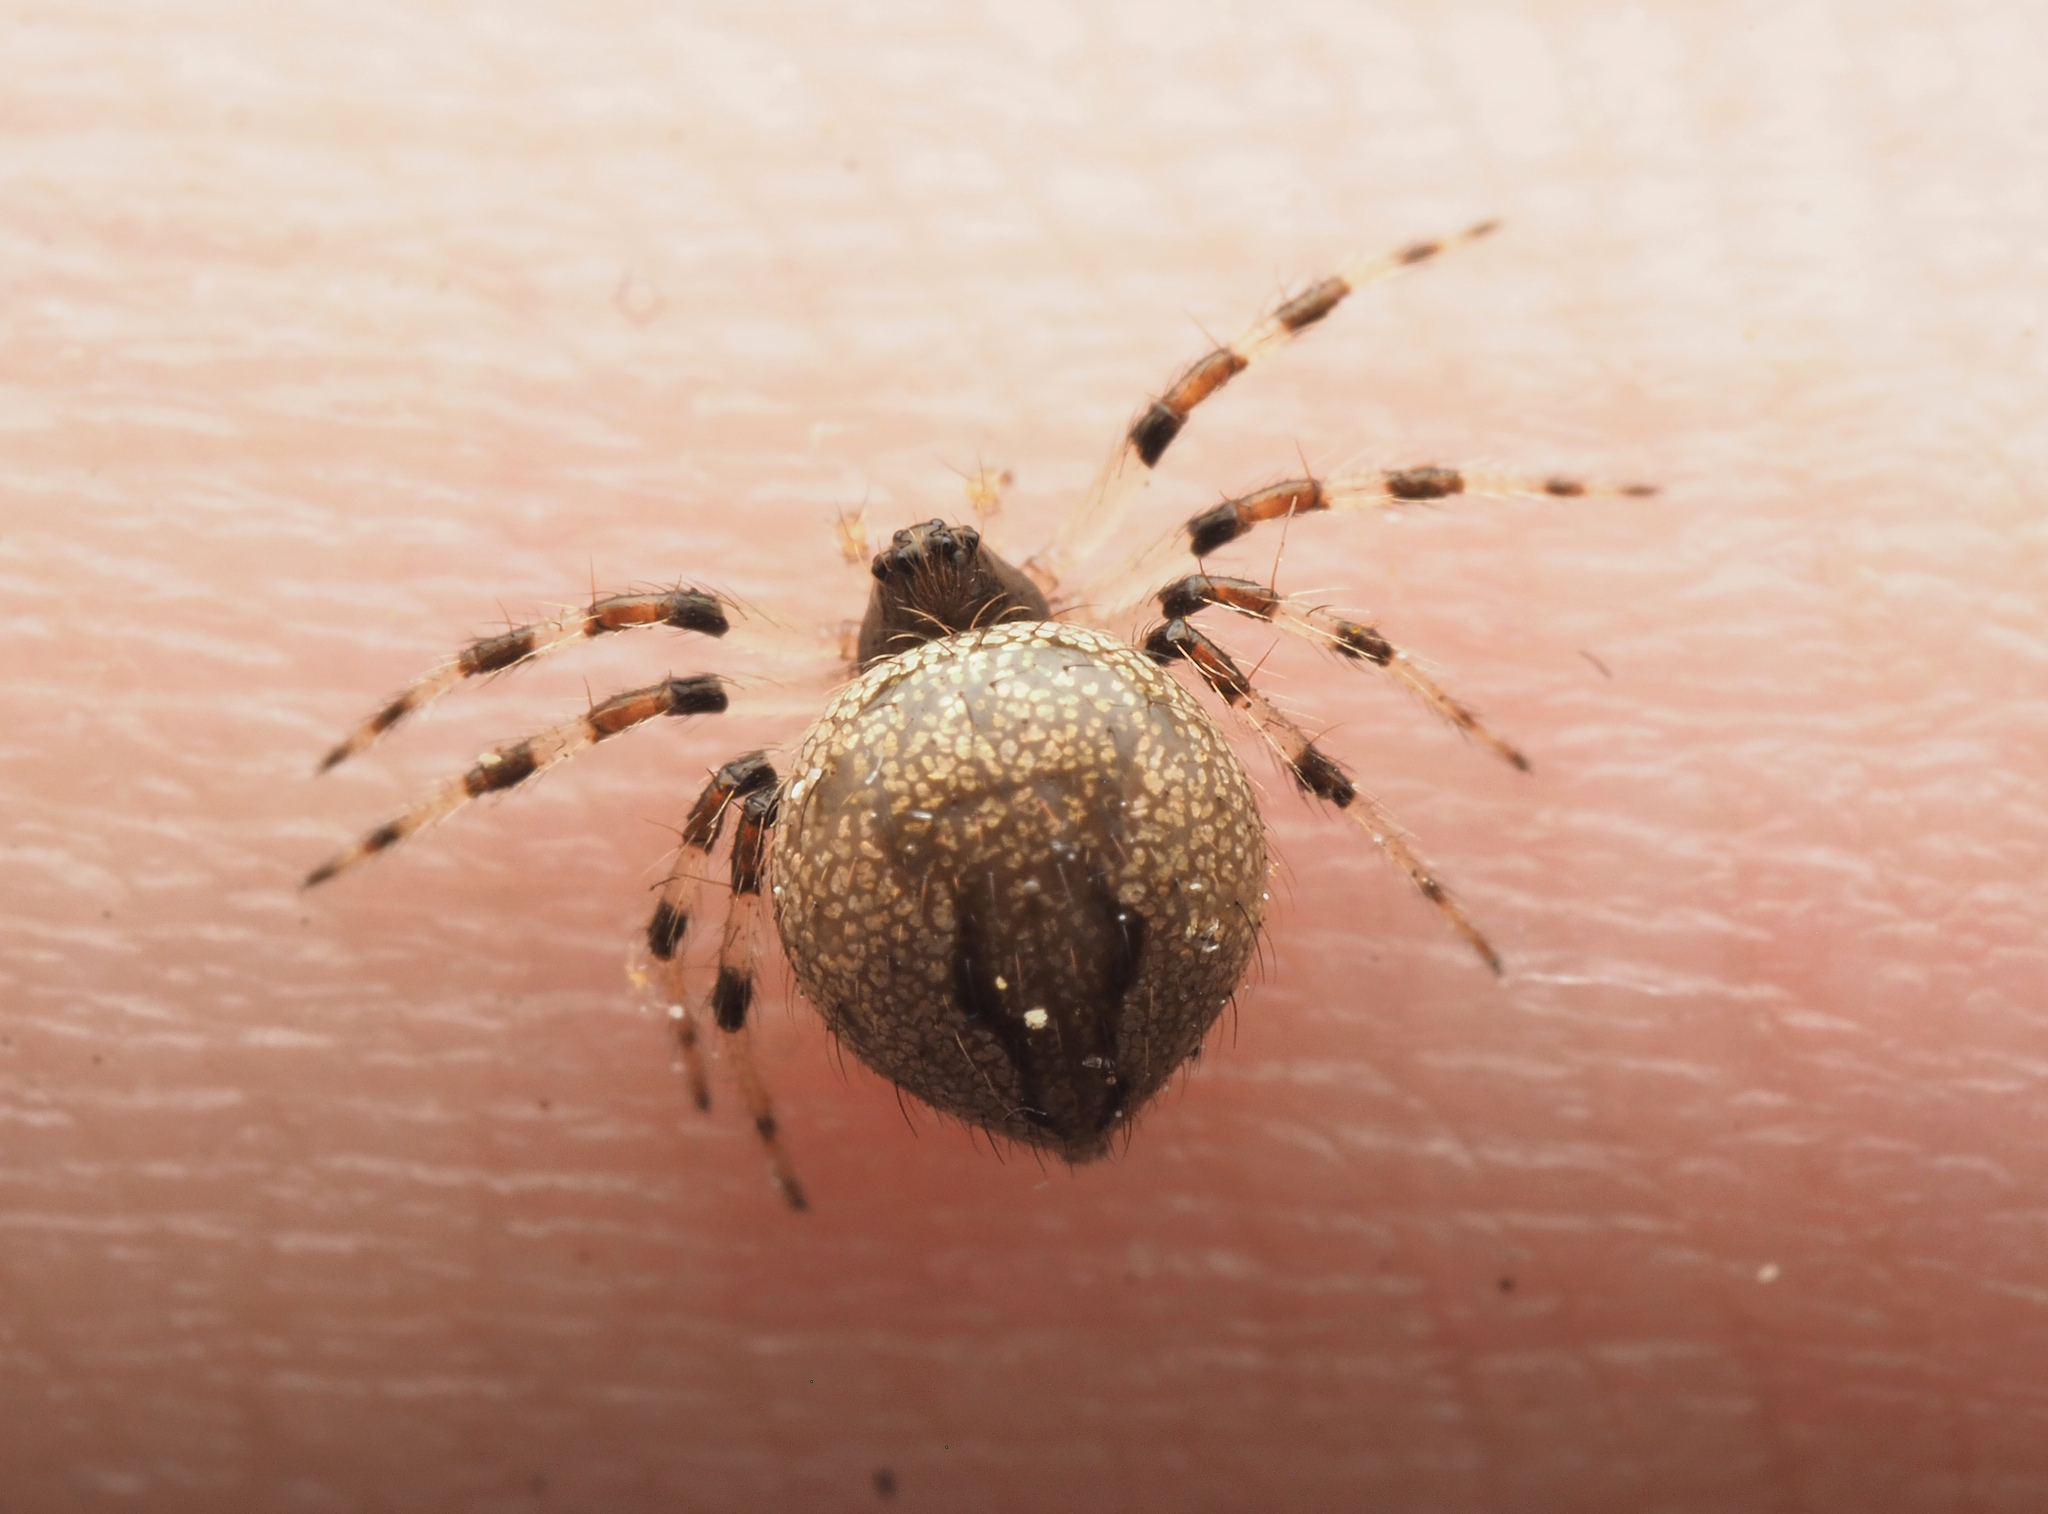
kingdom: Animalia
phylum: Arthropoda
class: Arachnida
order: Araneae
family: Theridiidae
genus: Euryopis
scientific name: Euryopis
